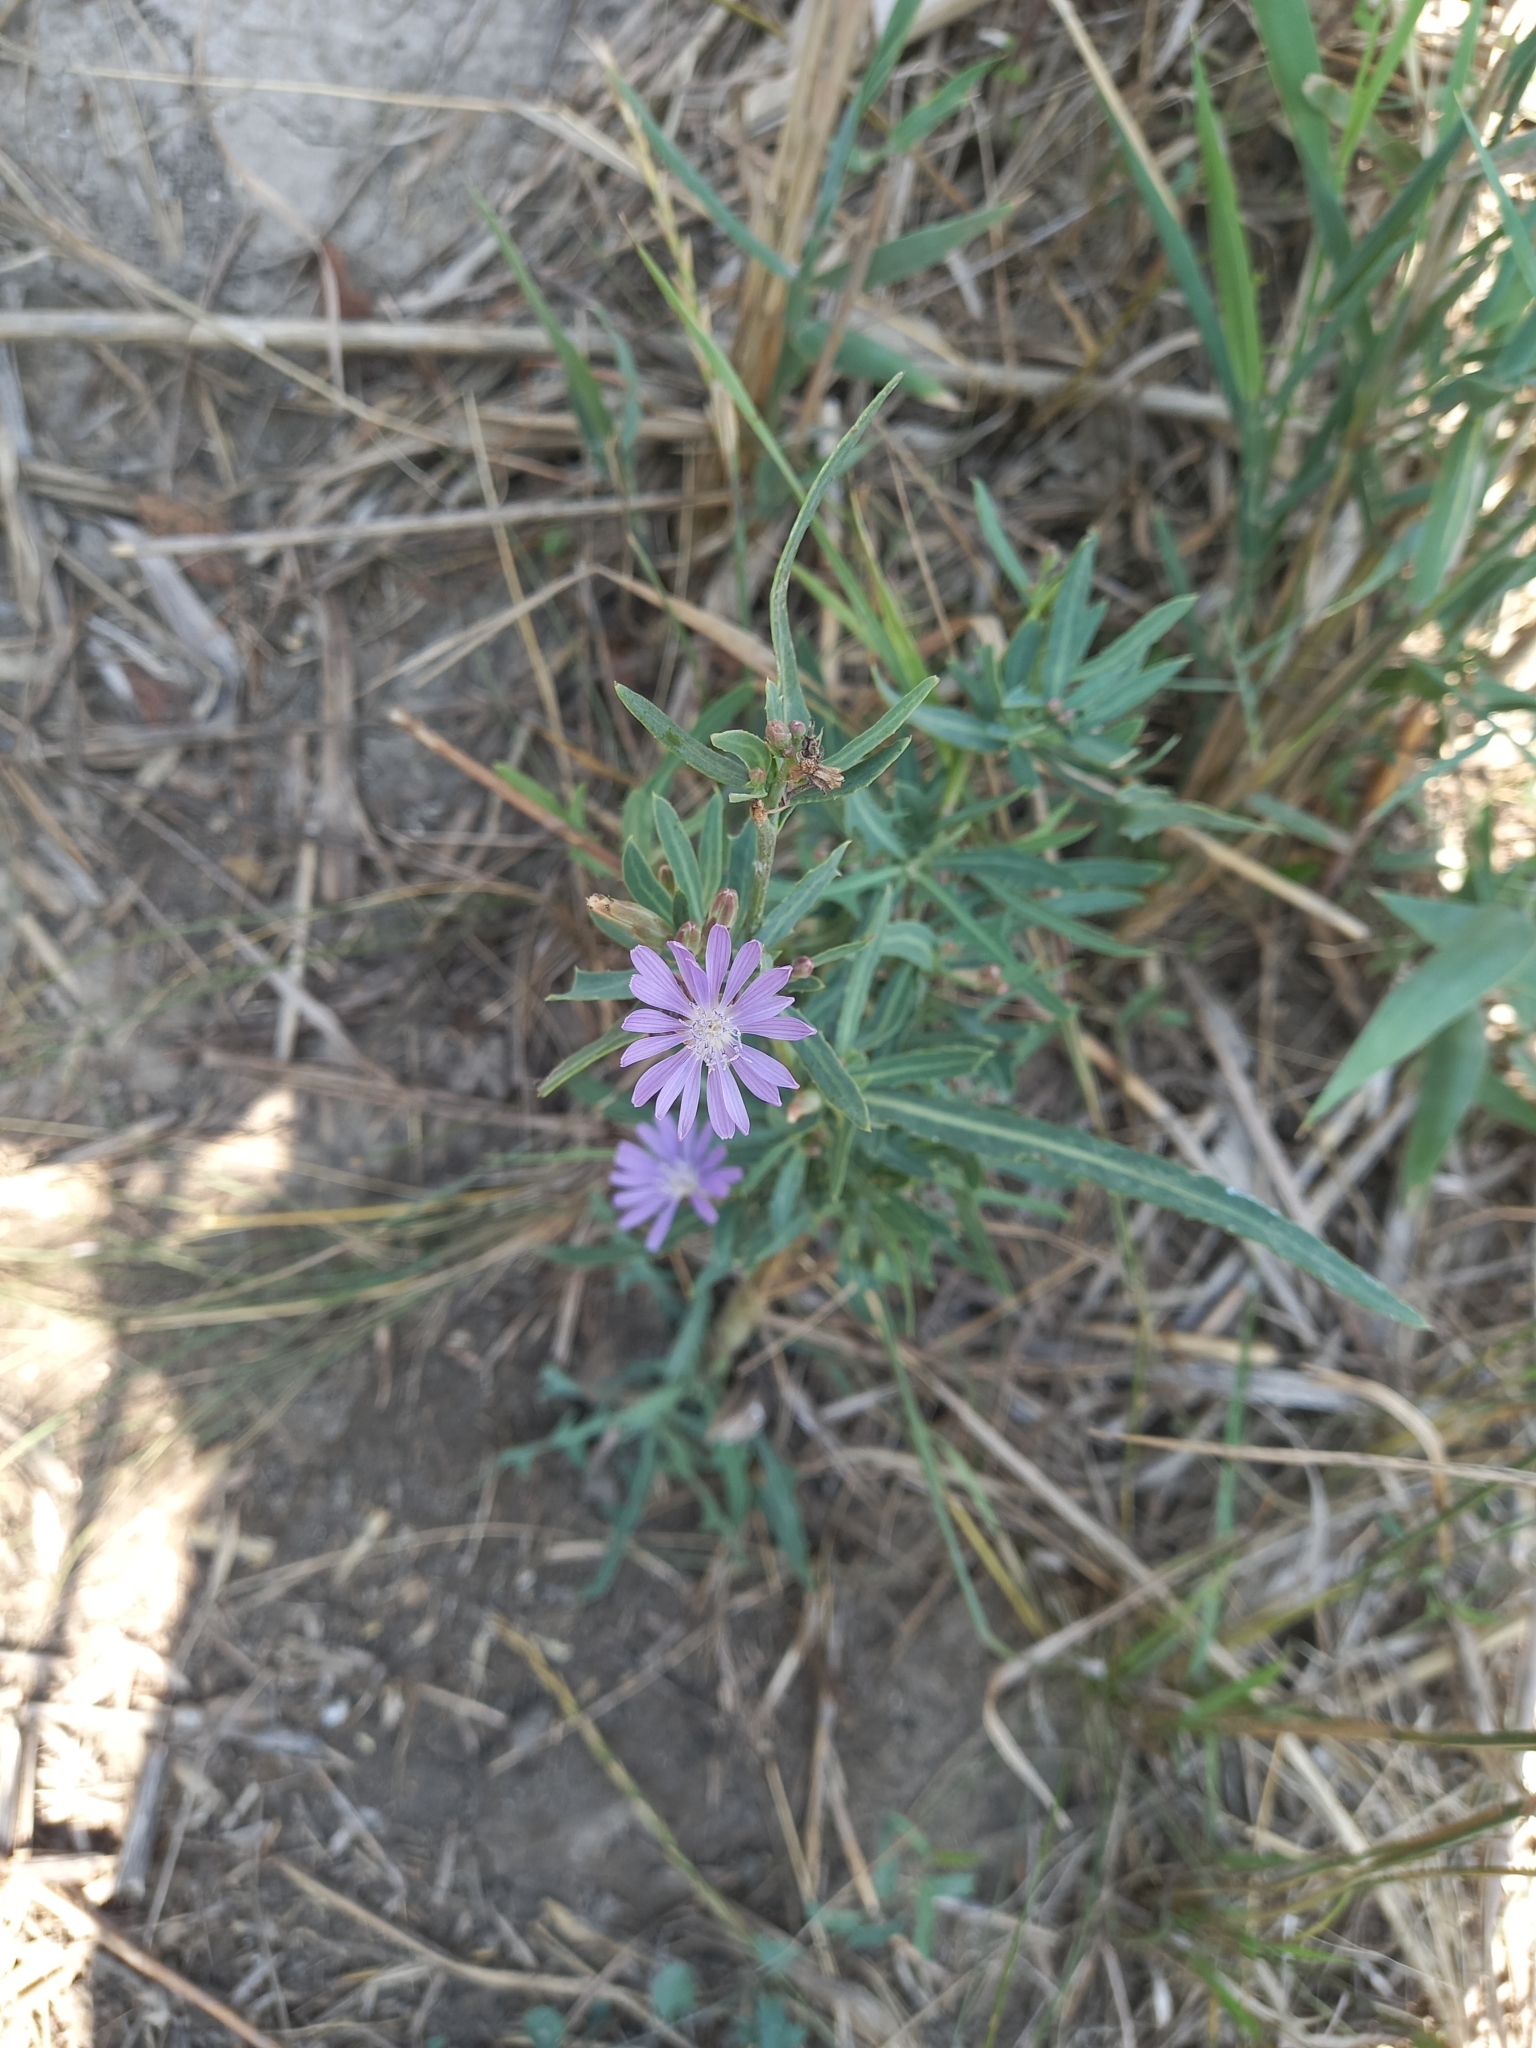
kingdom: Plantae
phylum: Tracheophyta
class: Magnoliopsida
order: Asterales
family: Asteraceae
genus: Lactuca
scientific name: Lactuca tatarica
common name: Blue lettuce
